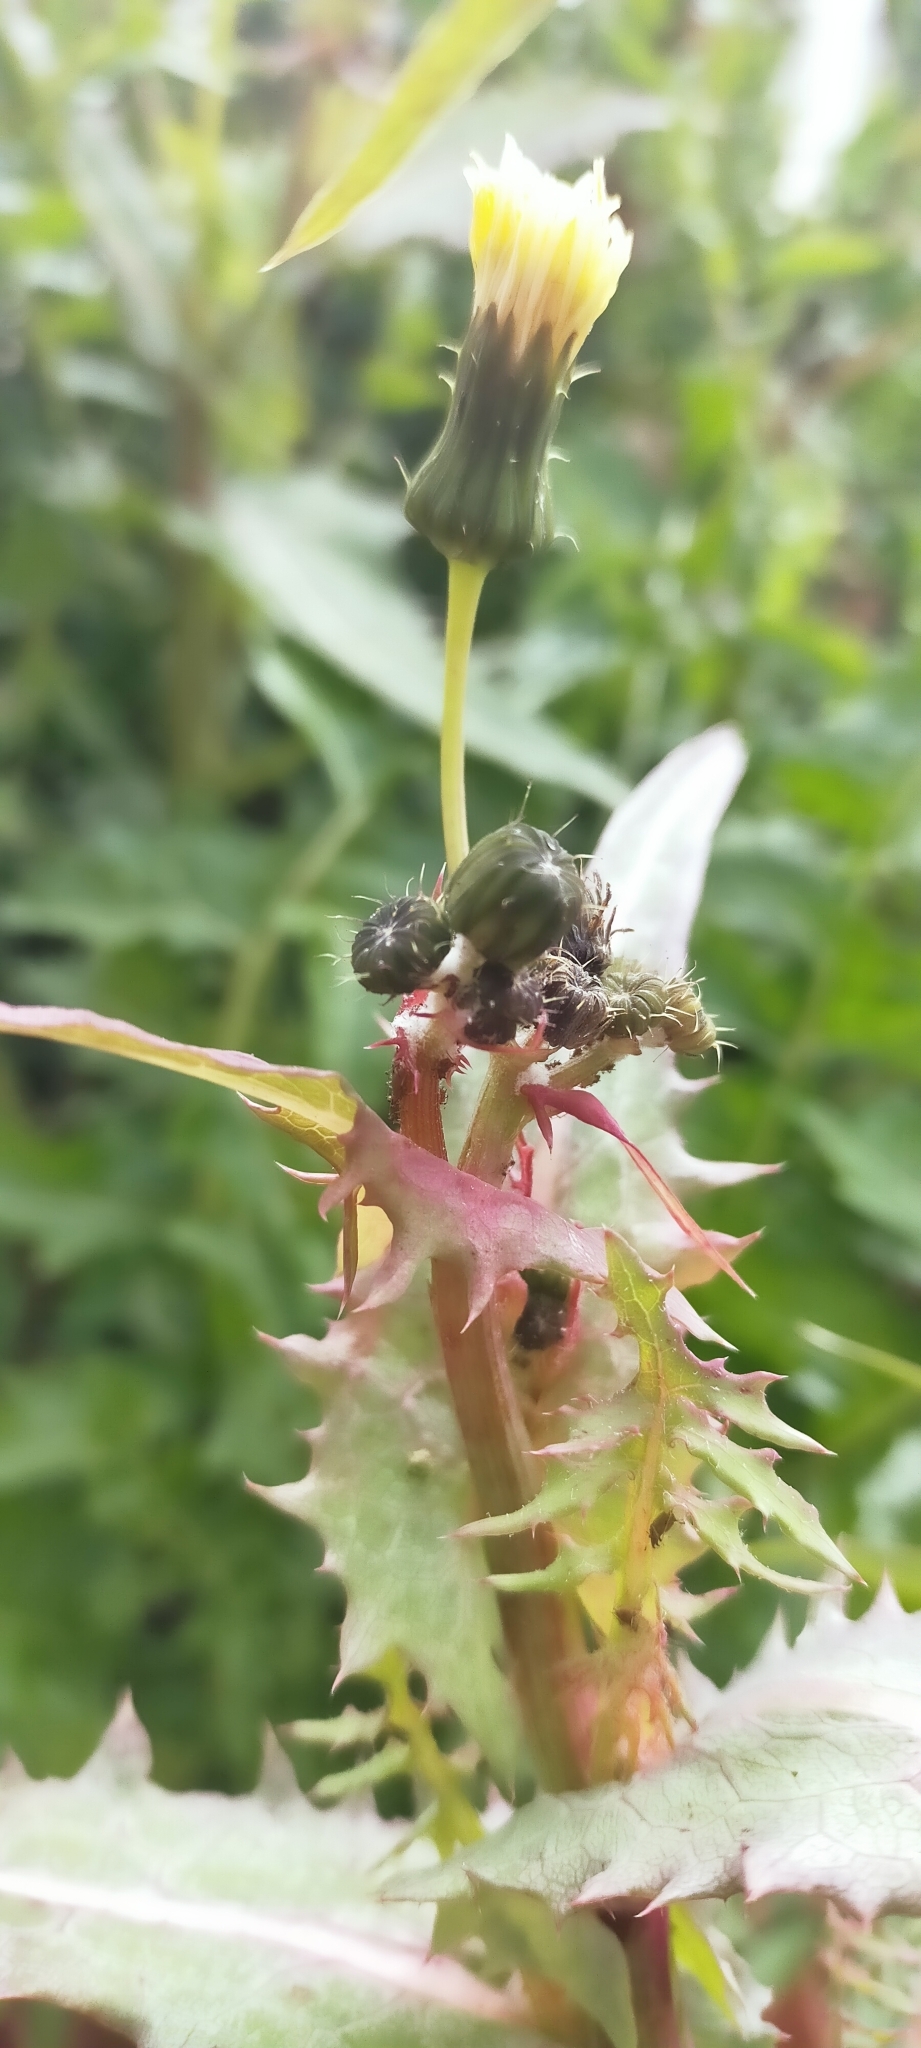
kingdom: Plantae
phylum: Tracheophyta
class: Magnoliopsida
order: Asterales
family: Asteraceae
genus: Sonchus
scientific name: Sonchus oleraceus
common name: Common sowthistle
